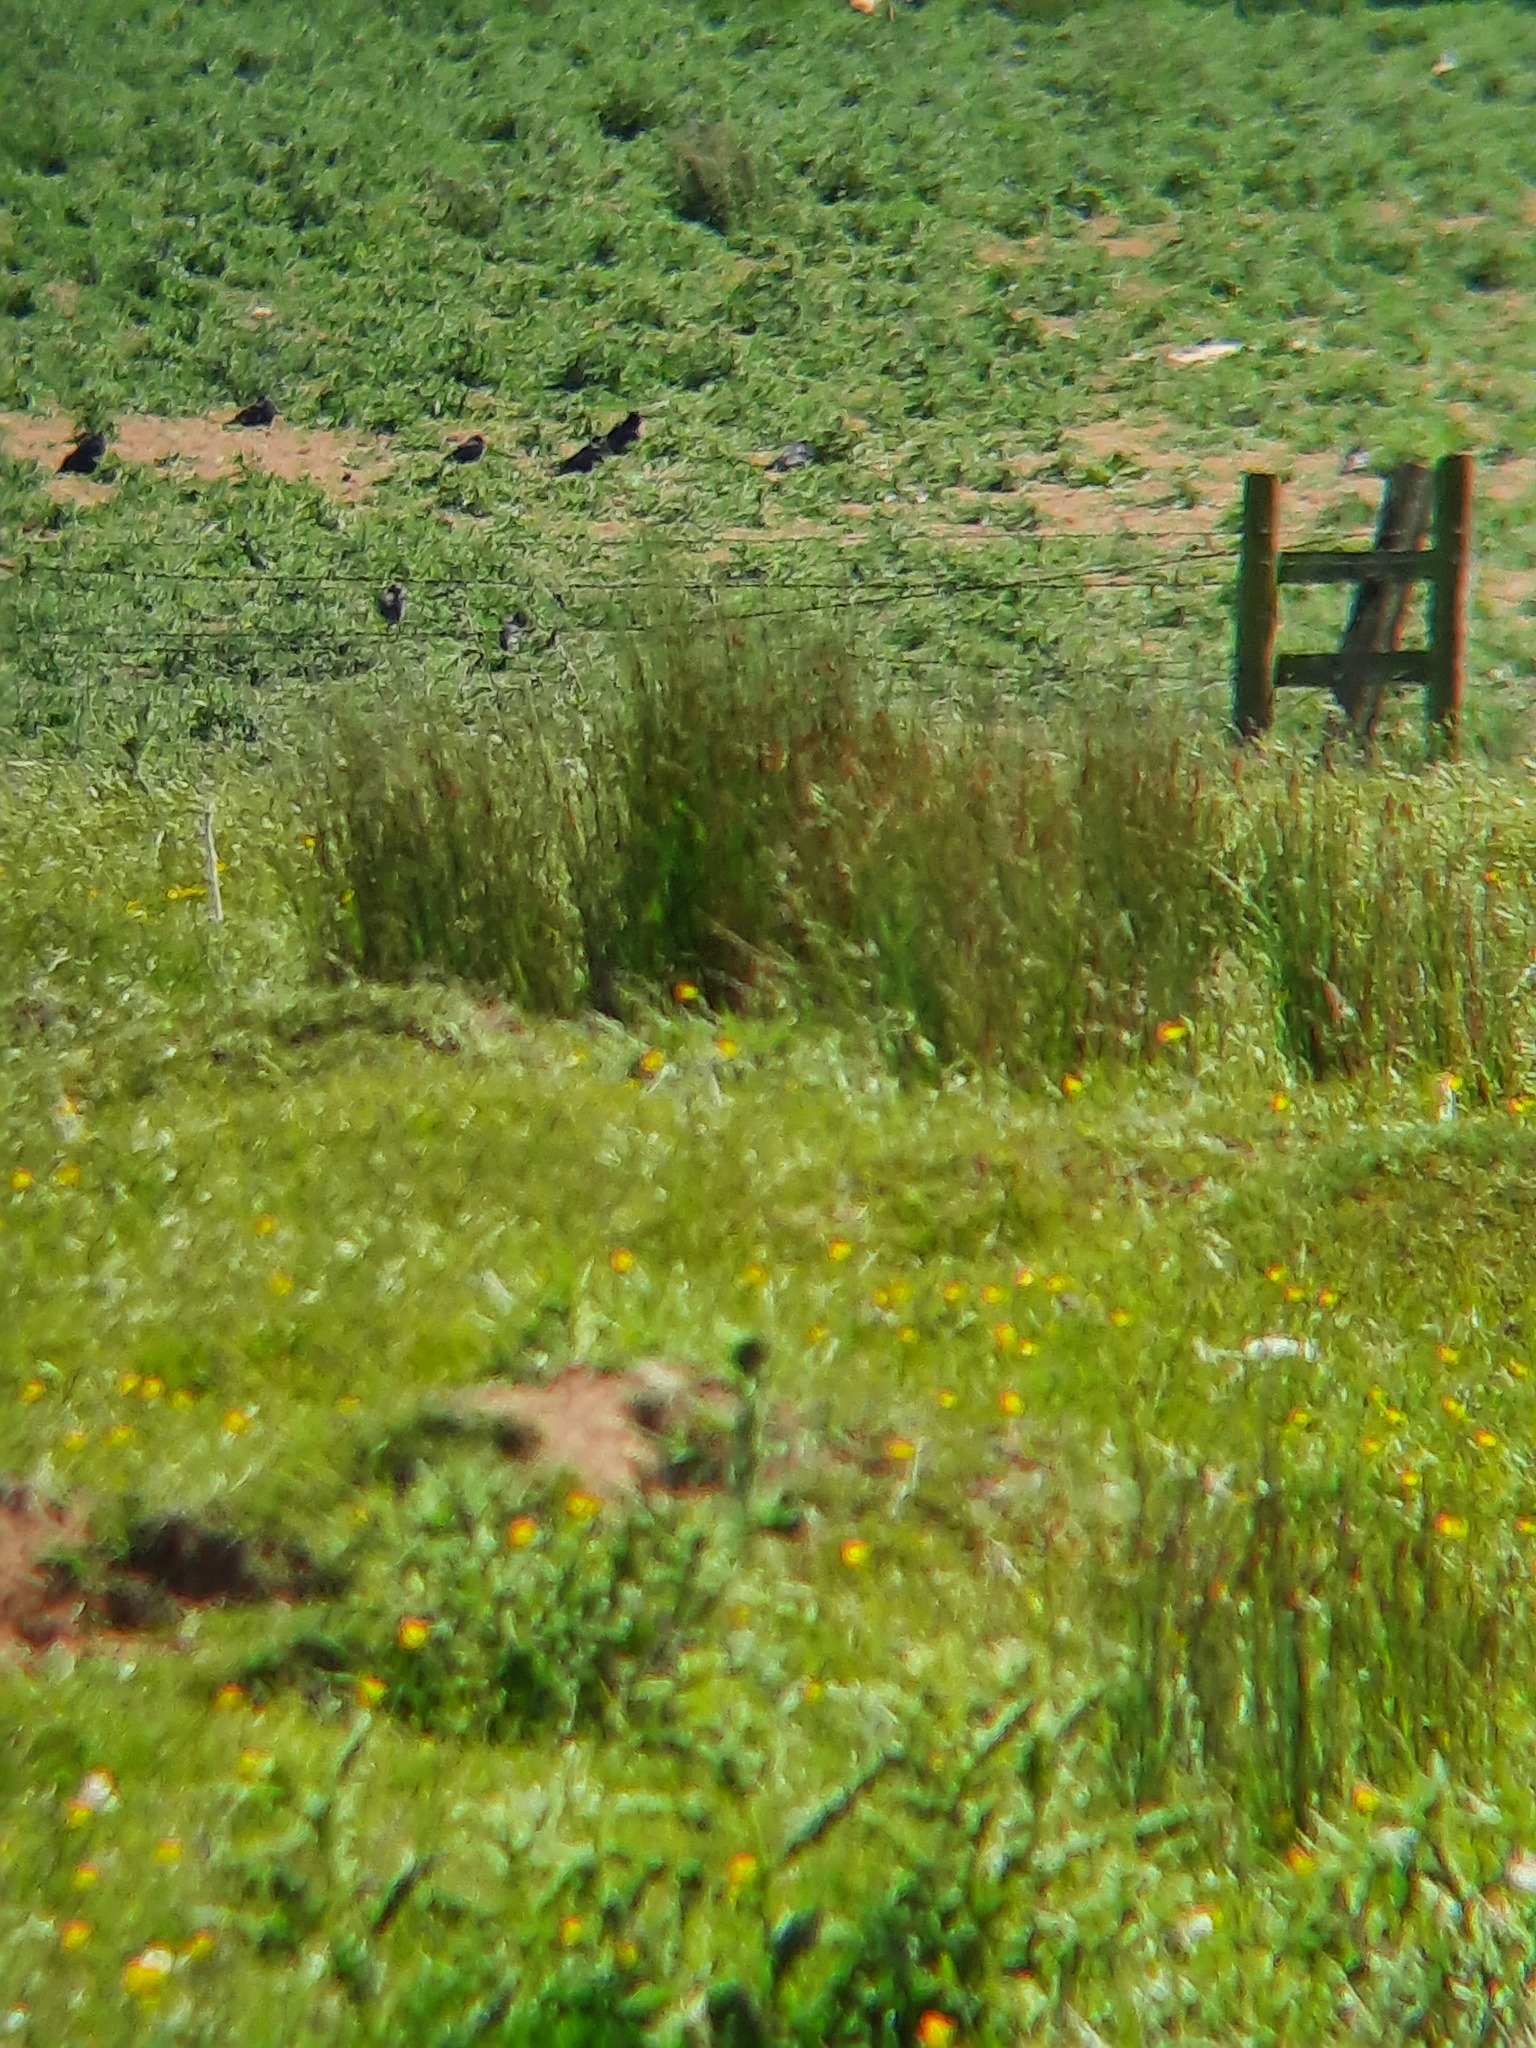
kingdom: Animalia
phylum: Chordata
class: Aves
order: Passeriformes
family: Corvidae
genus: Corvus
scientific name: Corvus corone
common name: Carrion crow
